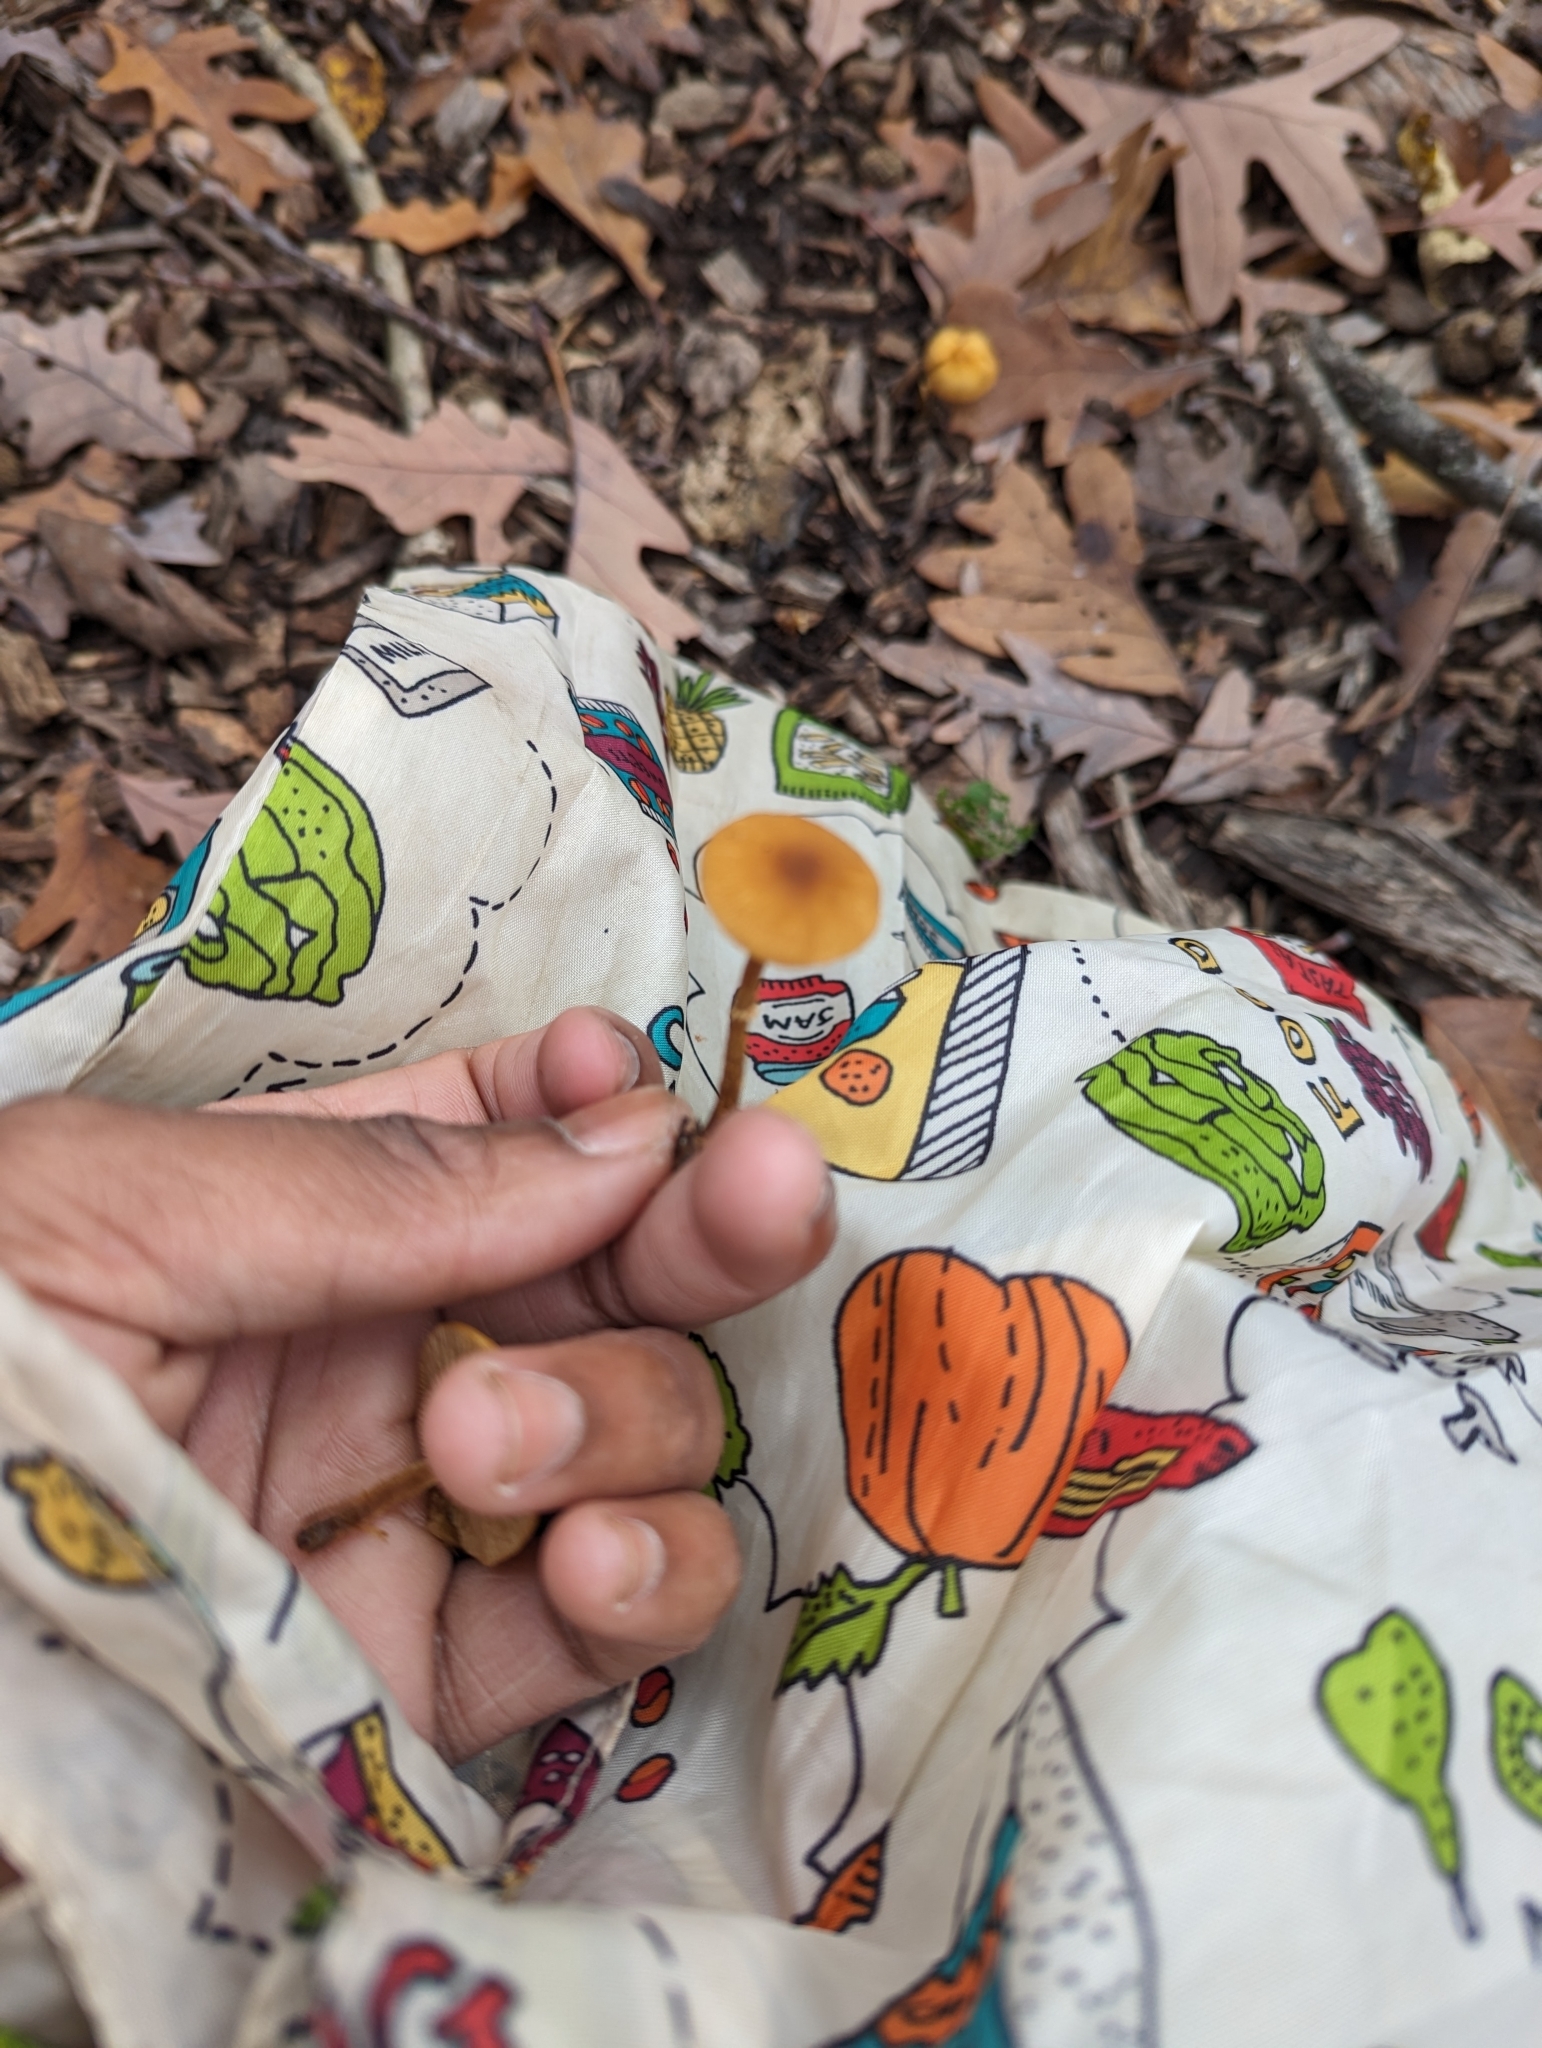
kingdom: Fungi
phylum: Basidiomycota
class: Agaricomycetes
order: Agaricales
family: Bolbitiaceae
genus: Conocybe
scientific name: Conocybe rugosa
